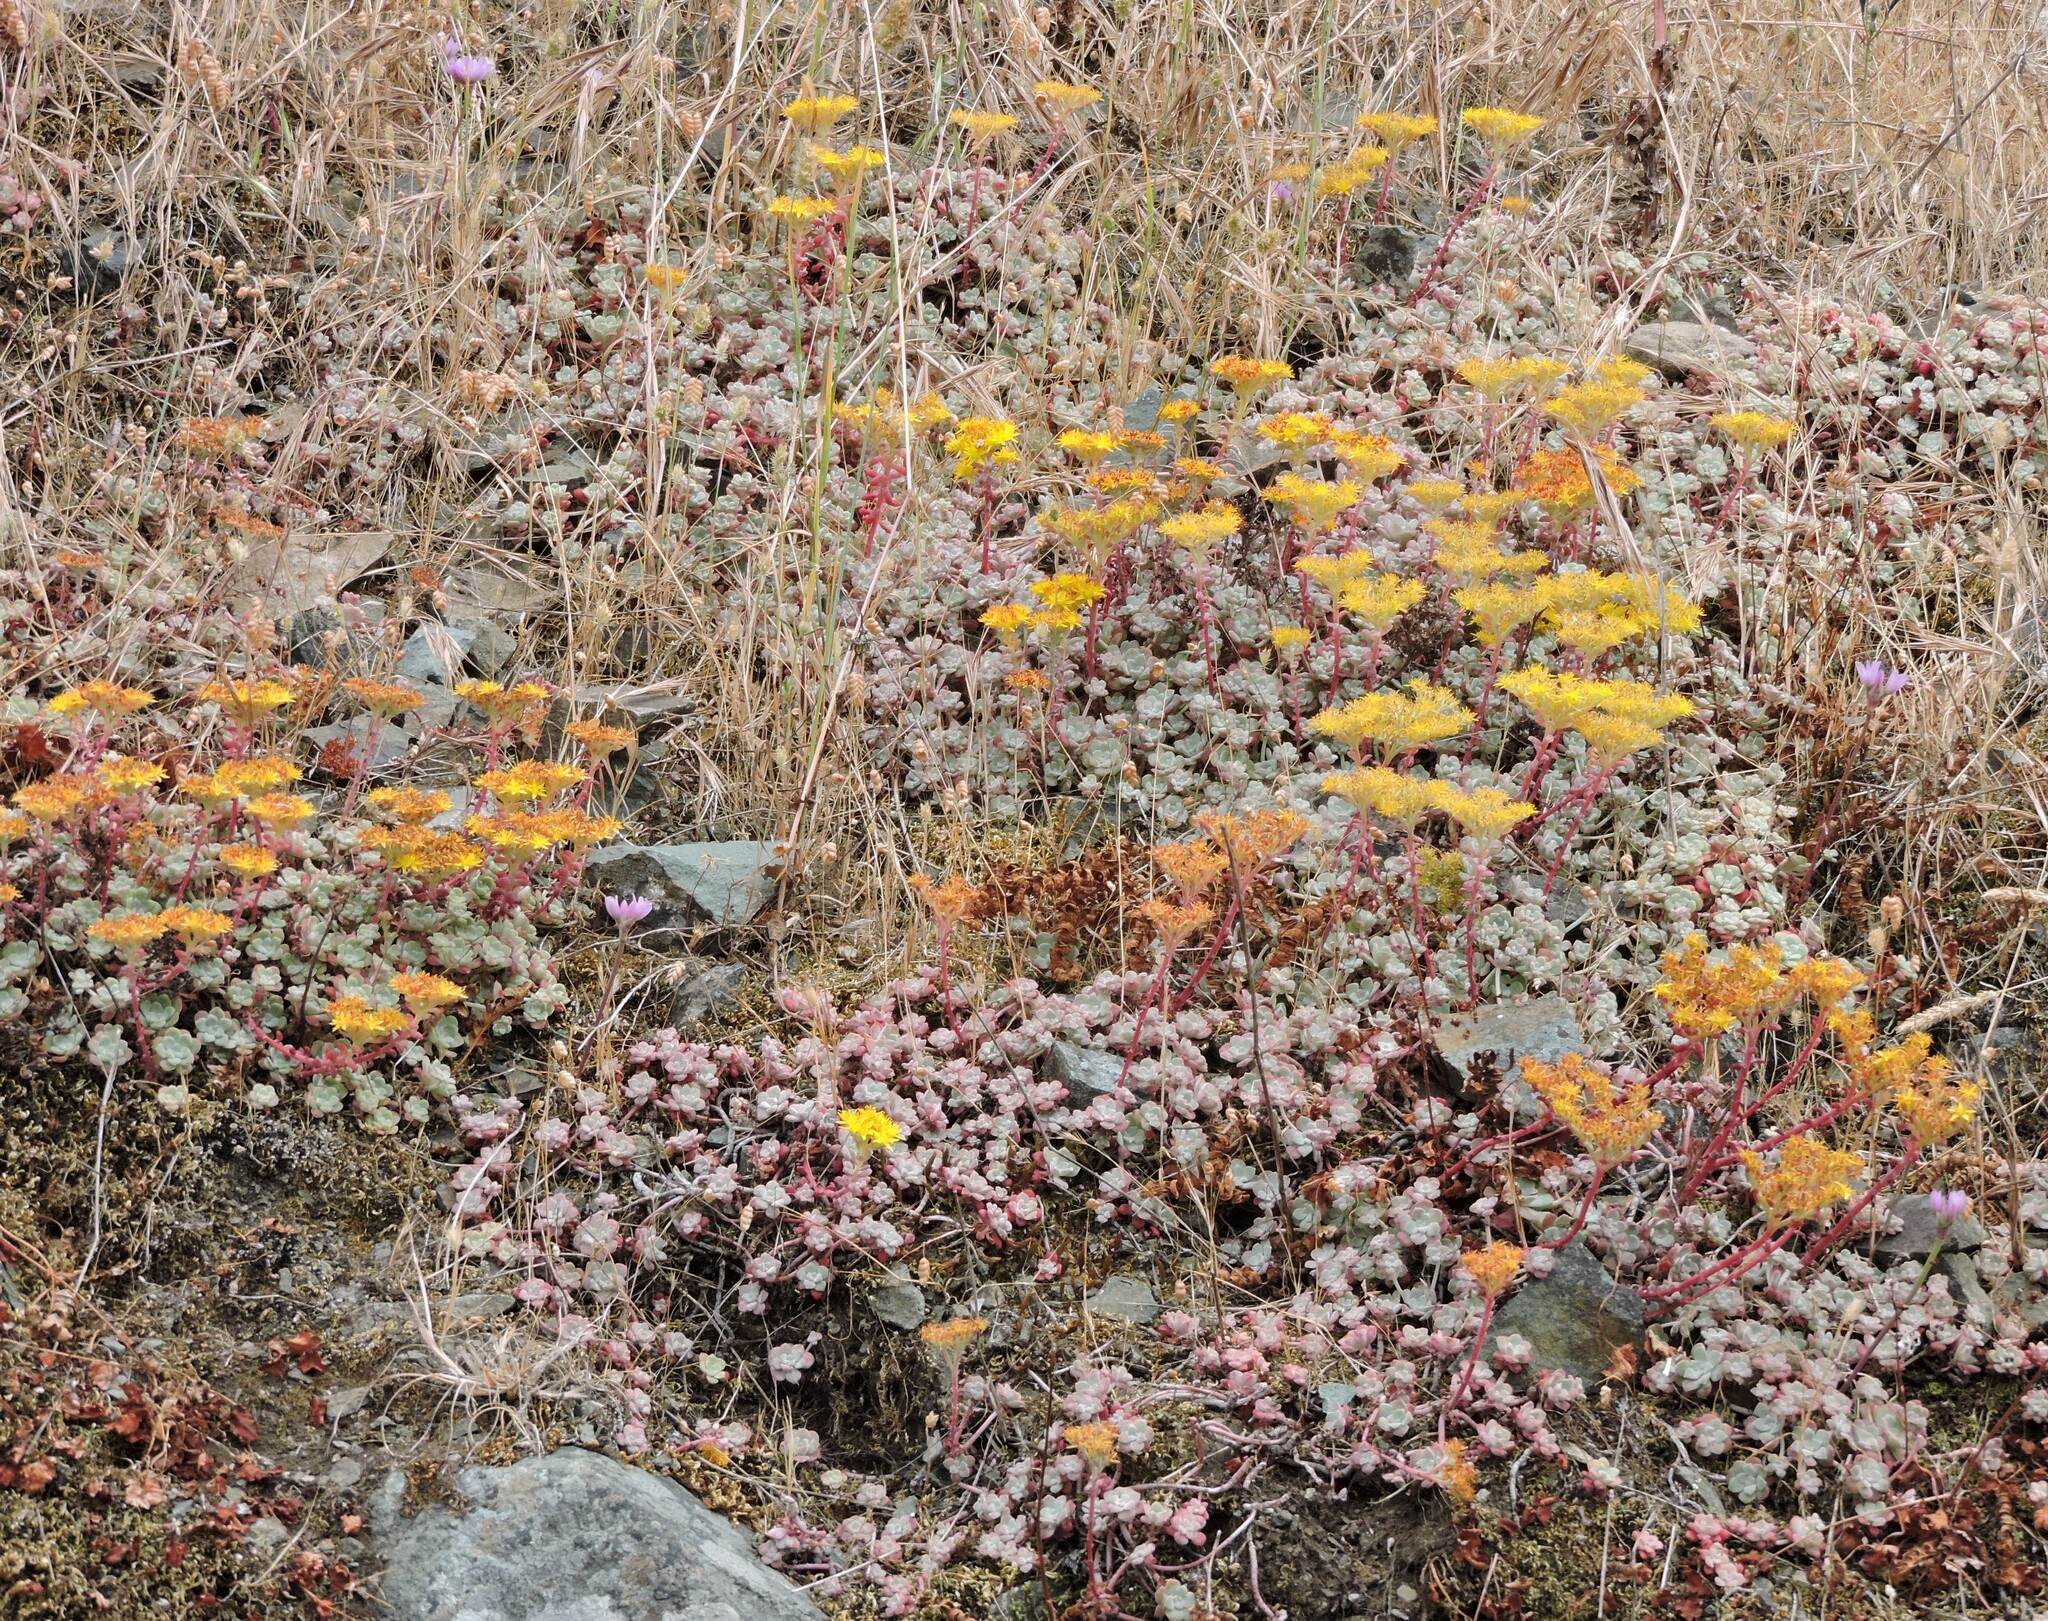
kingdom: Plantae
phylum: Tracheophyta
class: Magnoliopsida
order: Saxifragales
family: Crassulaceae
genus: Sedum
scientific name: Sedum spathulifolium
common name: Colorado stonecrop
